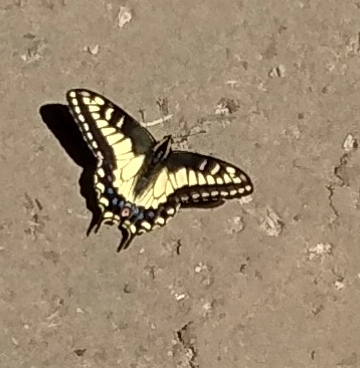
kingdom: Animalia
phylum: Arthropoda
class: Insecta
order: Lepidoptera
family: Papilionidae
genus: Papilio
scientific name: Papilio zelicaon
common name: Anise swallowtail
